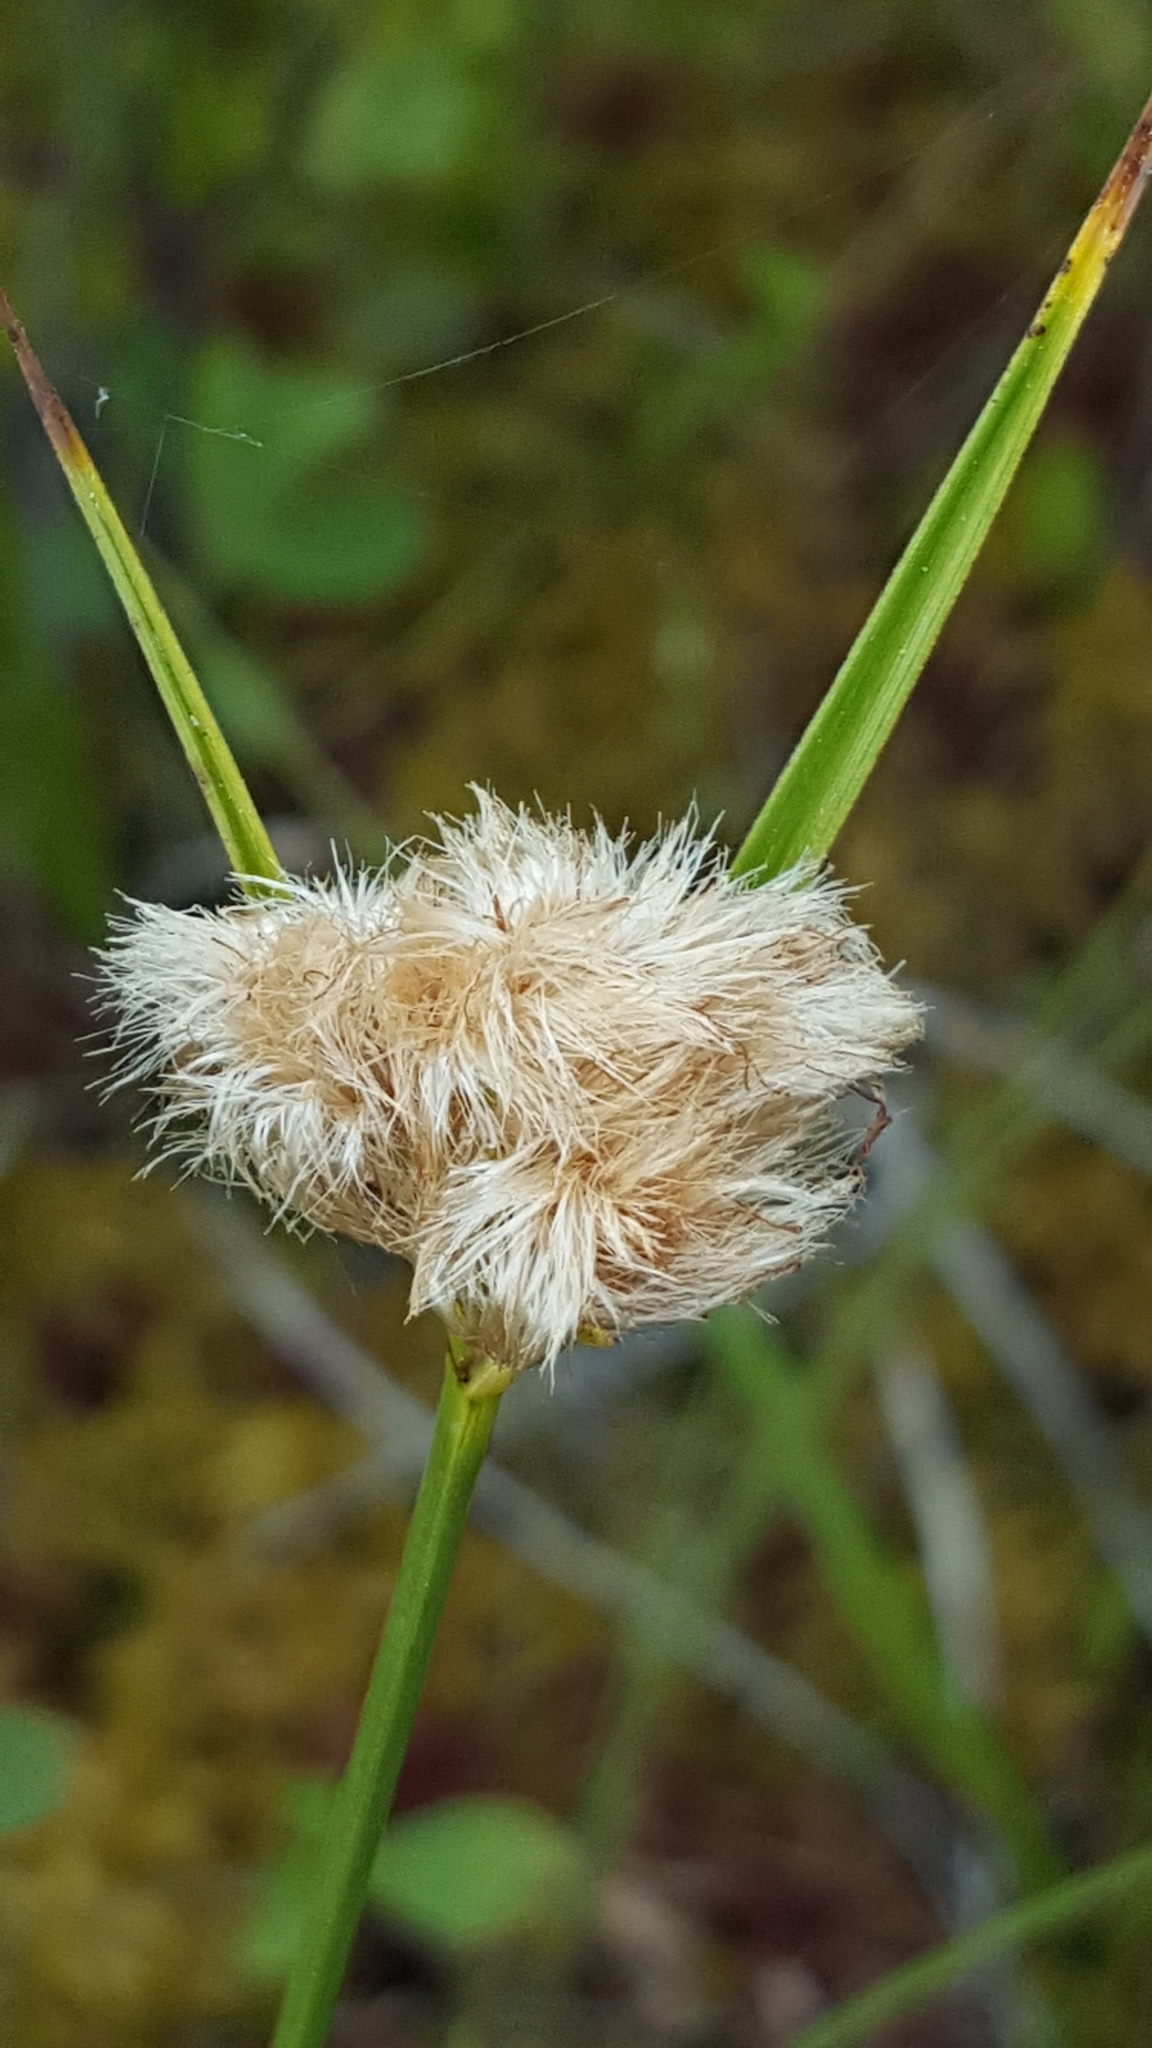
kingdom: Plantae
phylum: Tracheophyta
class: Liliopsida
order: Poales
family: Cyperaceae
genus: Eriophorum
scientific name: Eriophorum virginicum
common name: Tawny cottongrass
